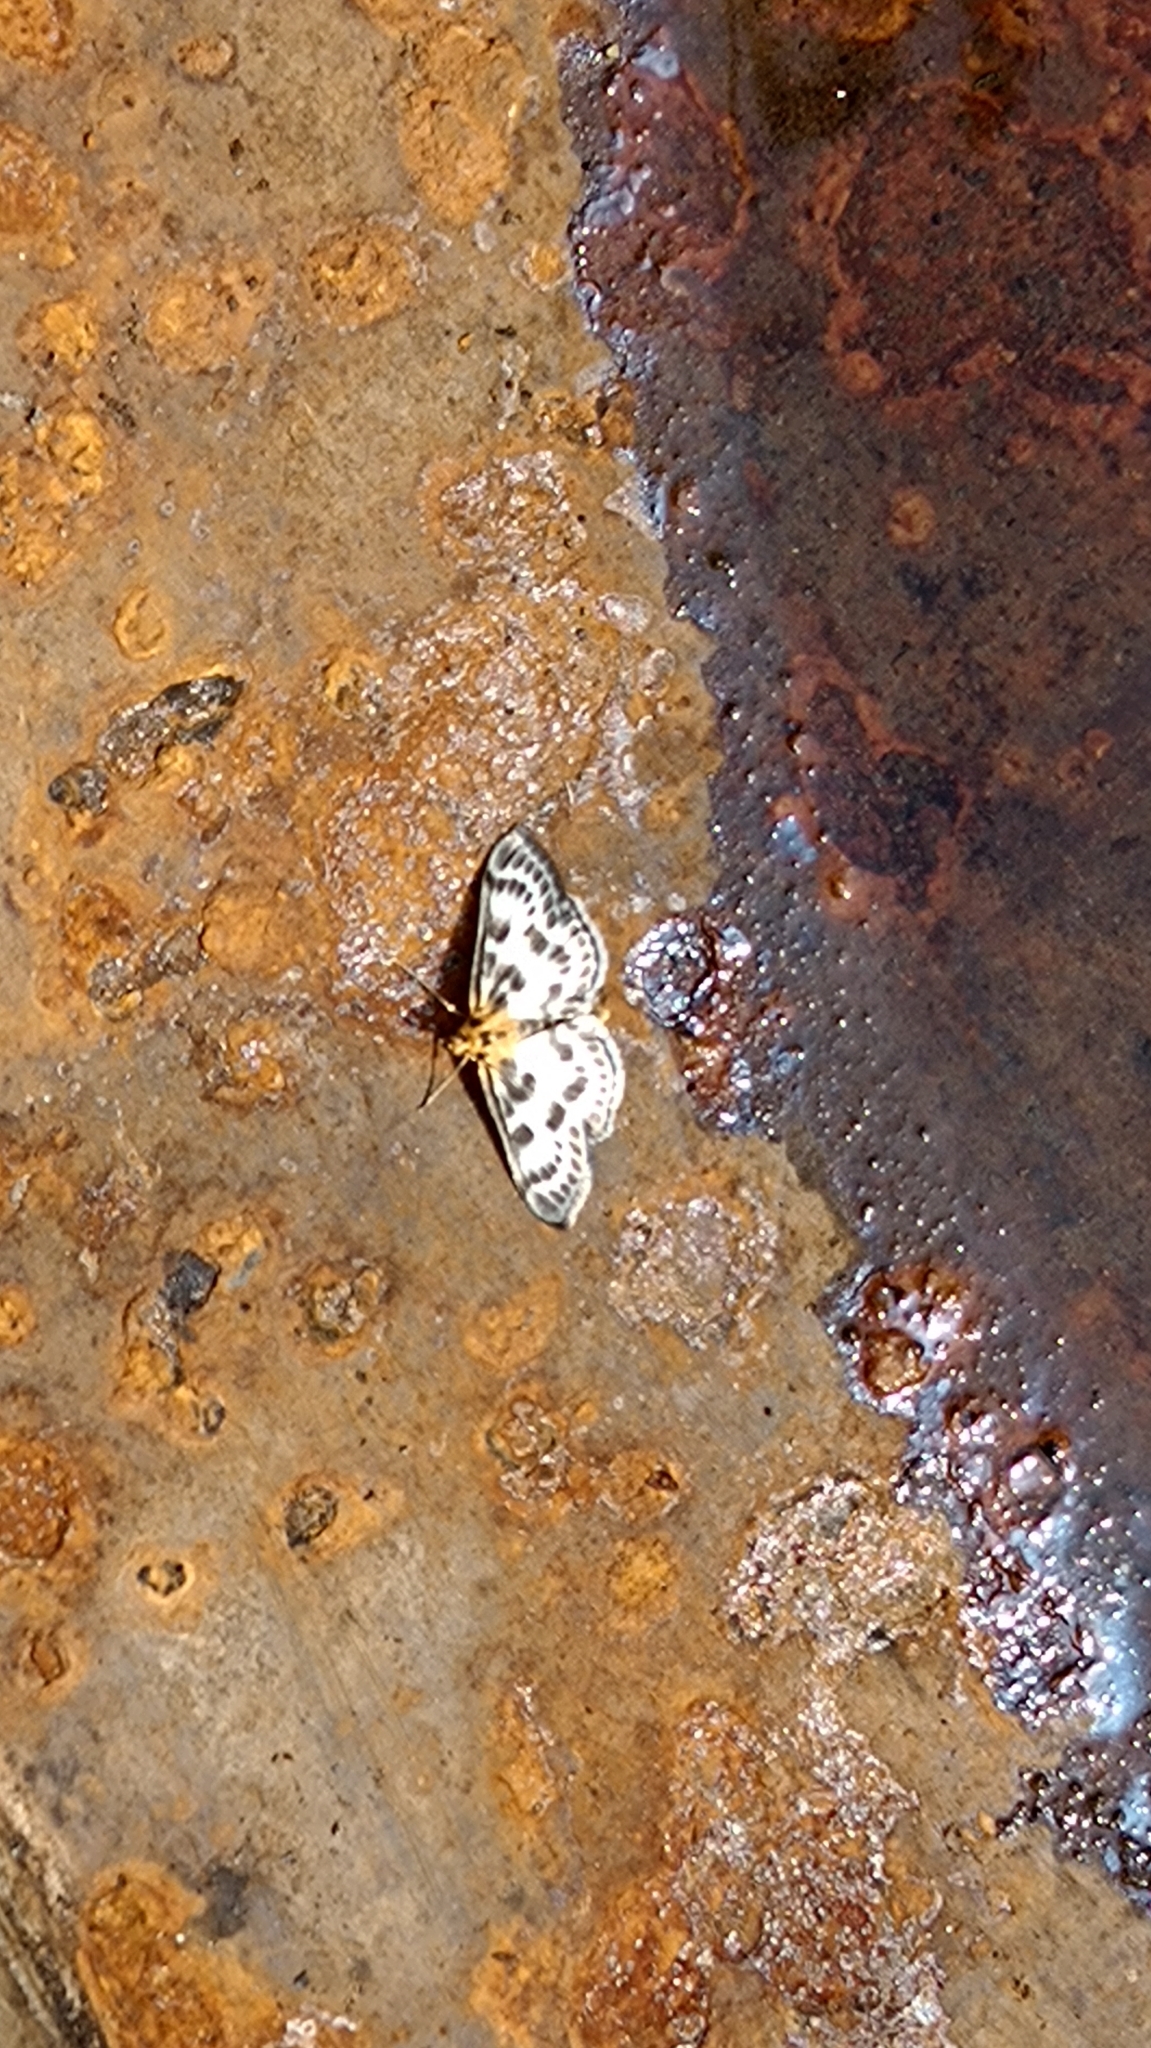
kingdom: Animalia
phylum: Arthropoda
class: Insecta
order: Lepidoptera
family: Crambidae
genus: Anania
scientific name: Anania hortulata
